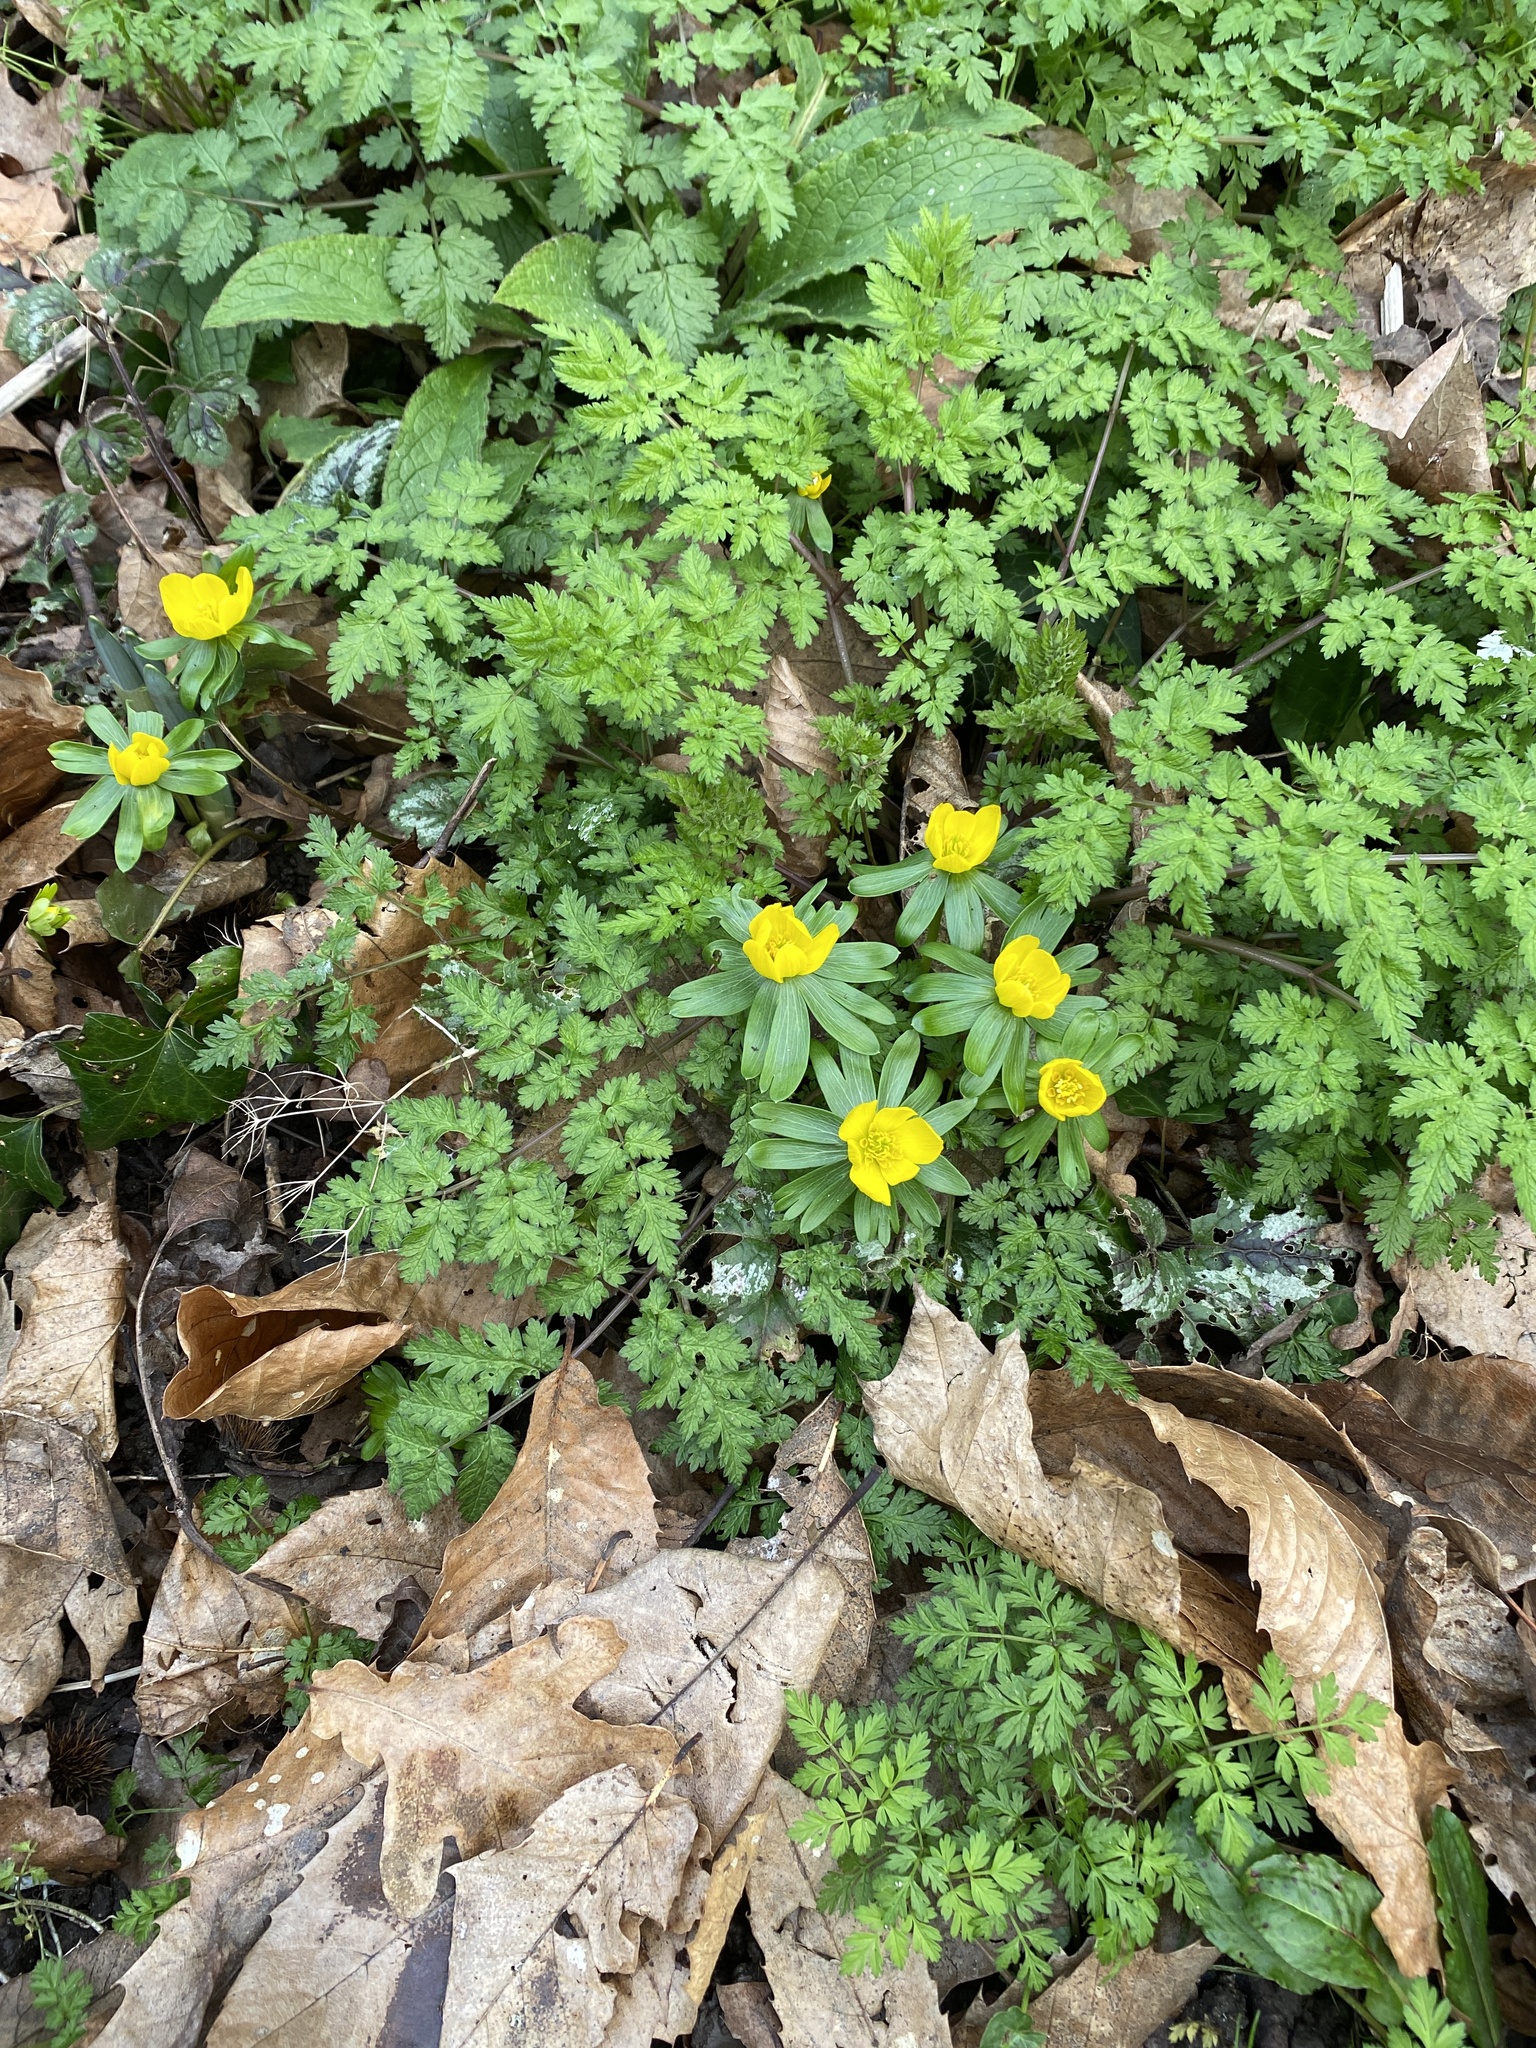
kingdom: Plantae
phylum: Tracheophyta
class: Magnoliopsida
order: Ranunculales
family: Ranunculaceae
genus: Eranthis
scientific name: Eranthis hyemalis
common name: Winter aconite
